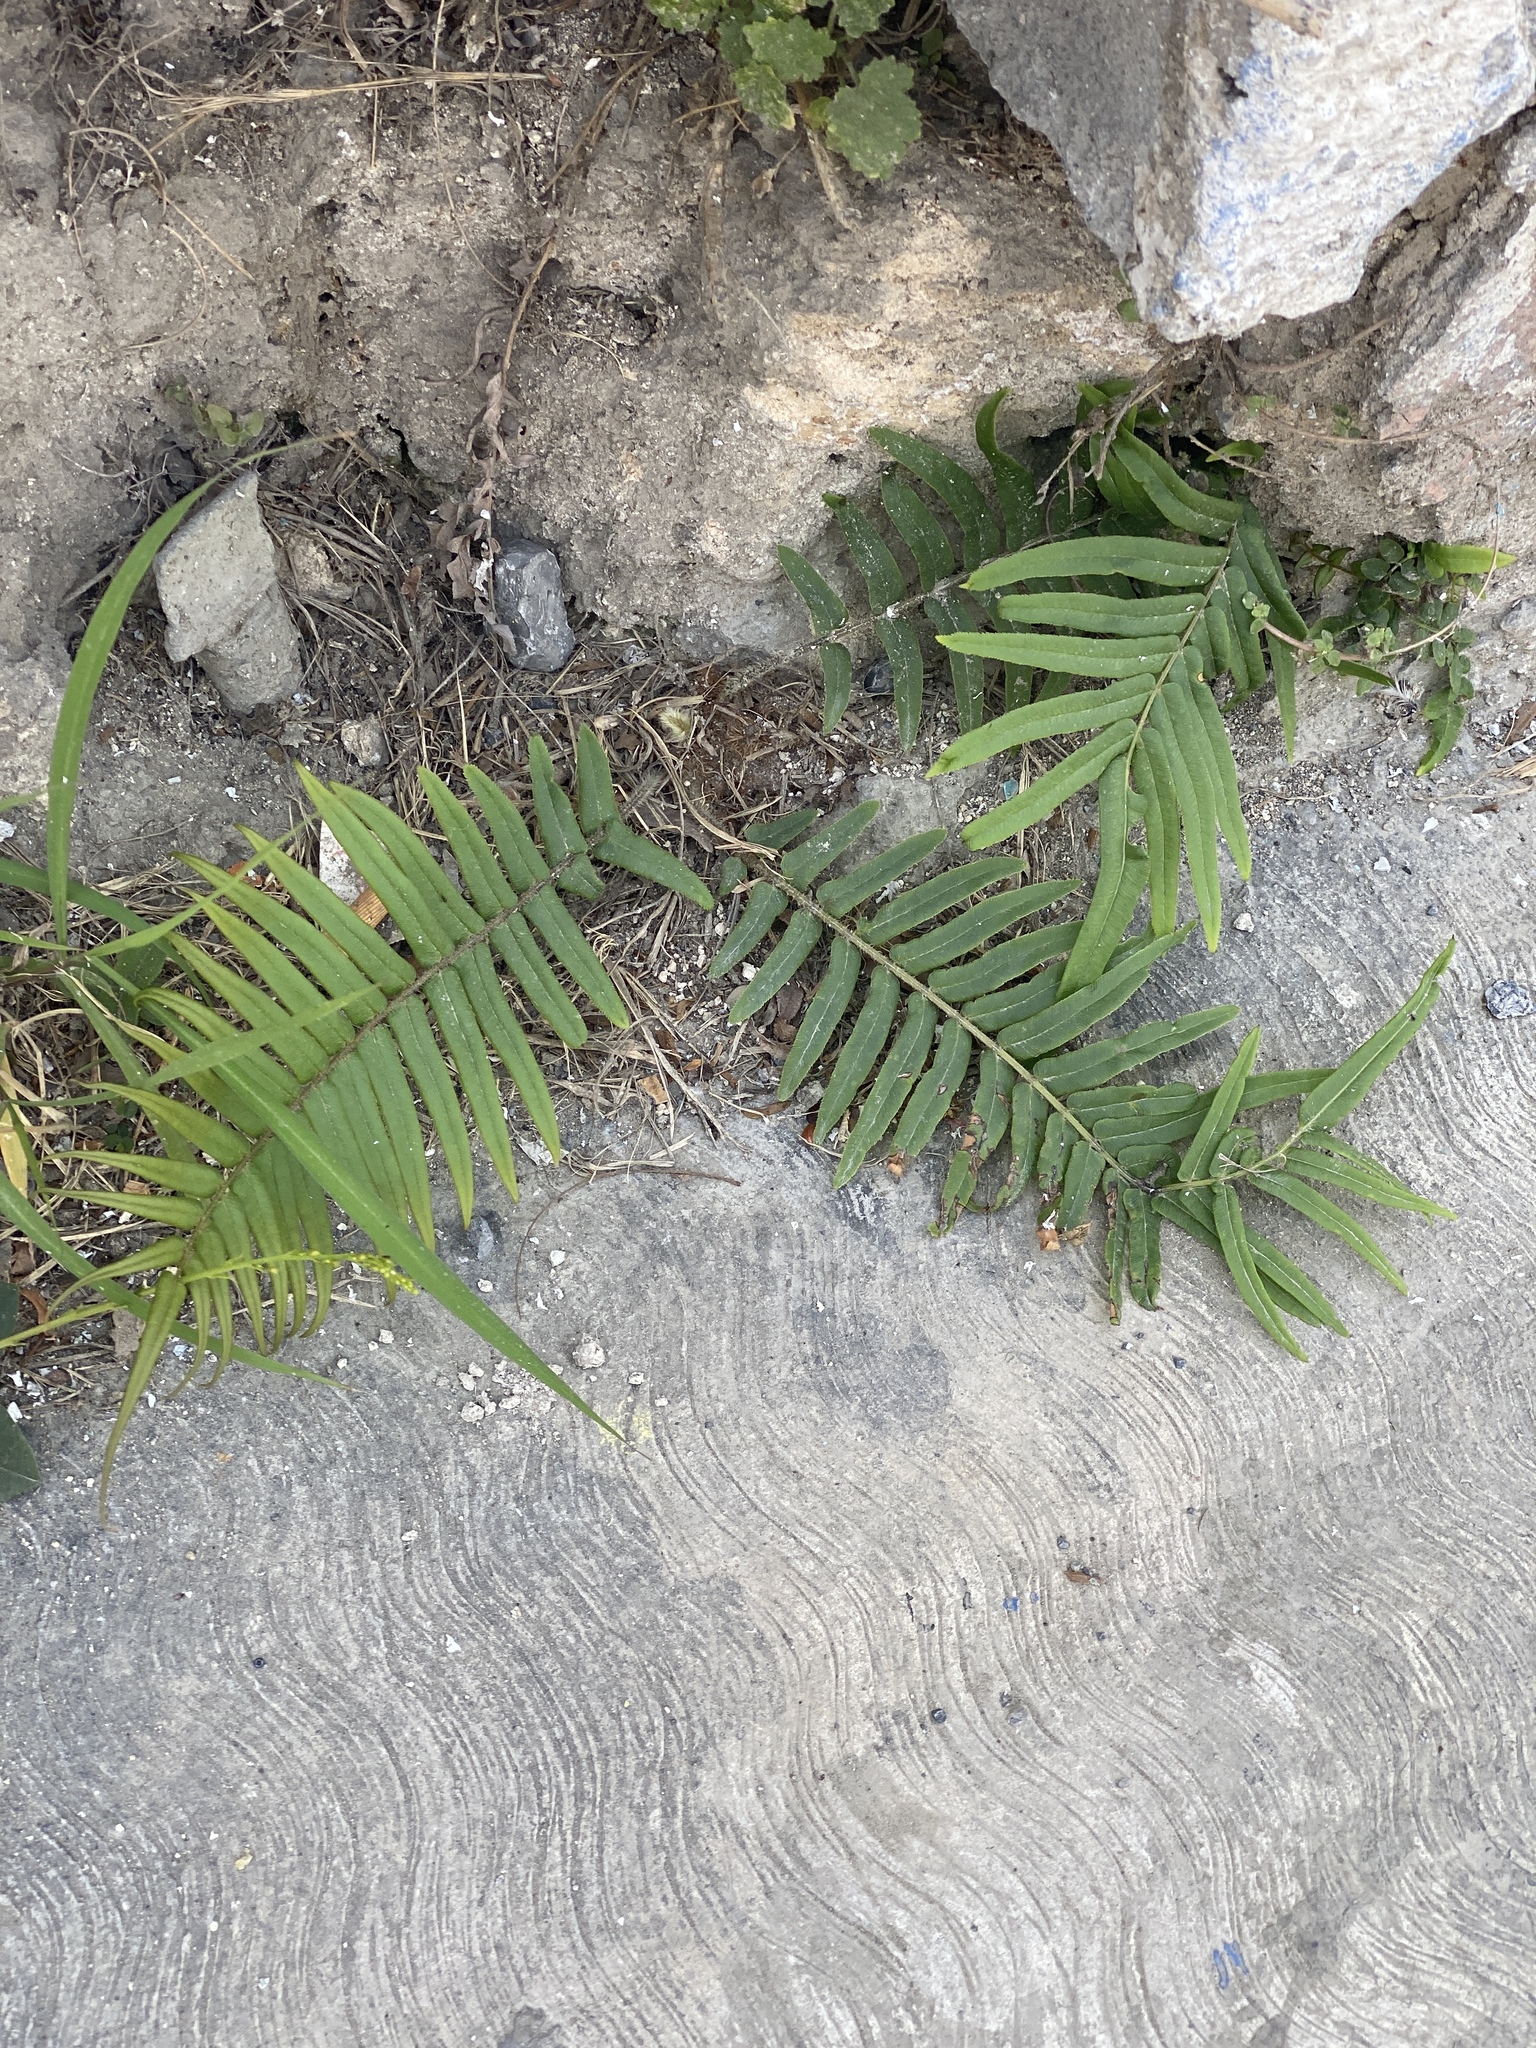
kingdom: Plantae
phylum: Tracheophyta
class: Polypodiopsida
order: Polypodiales
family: Pteridaceae
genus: Pteris
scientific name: Pteris vittata
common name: Ladder brake
